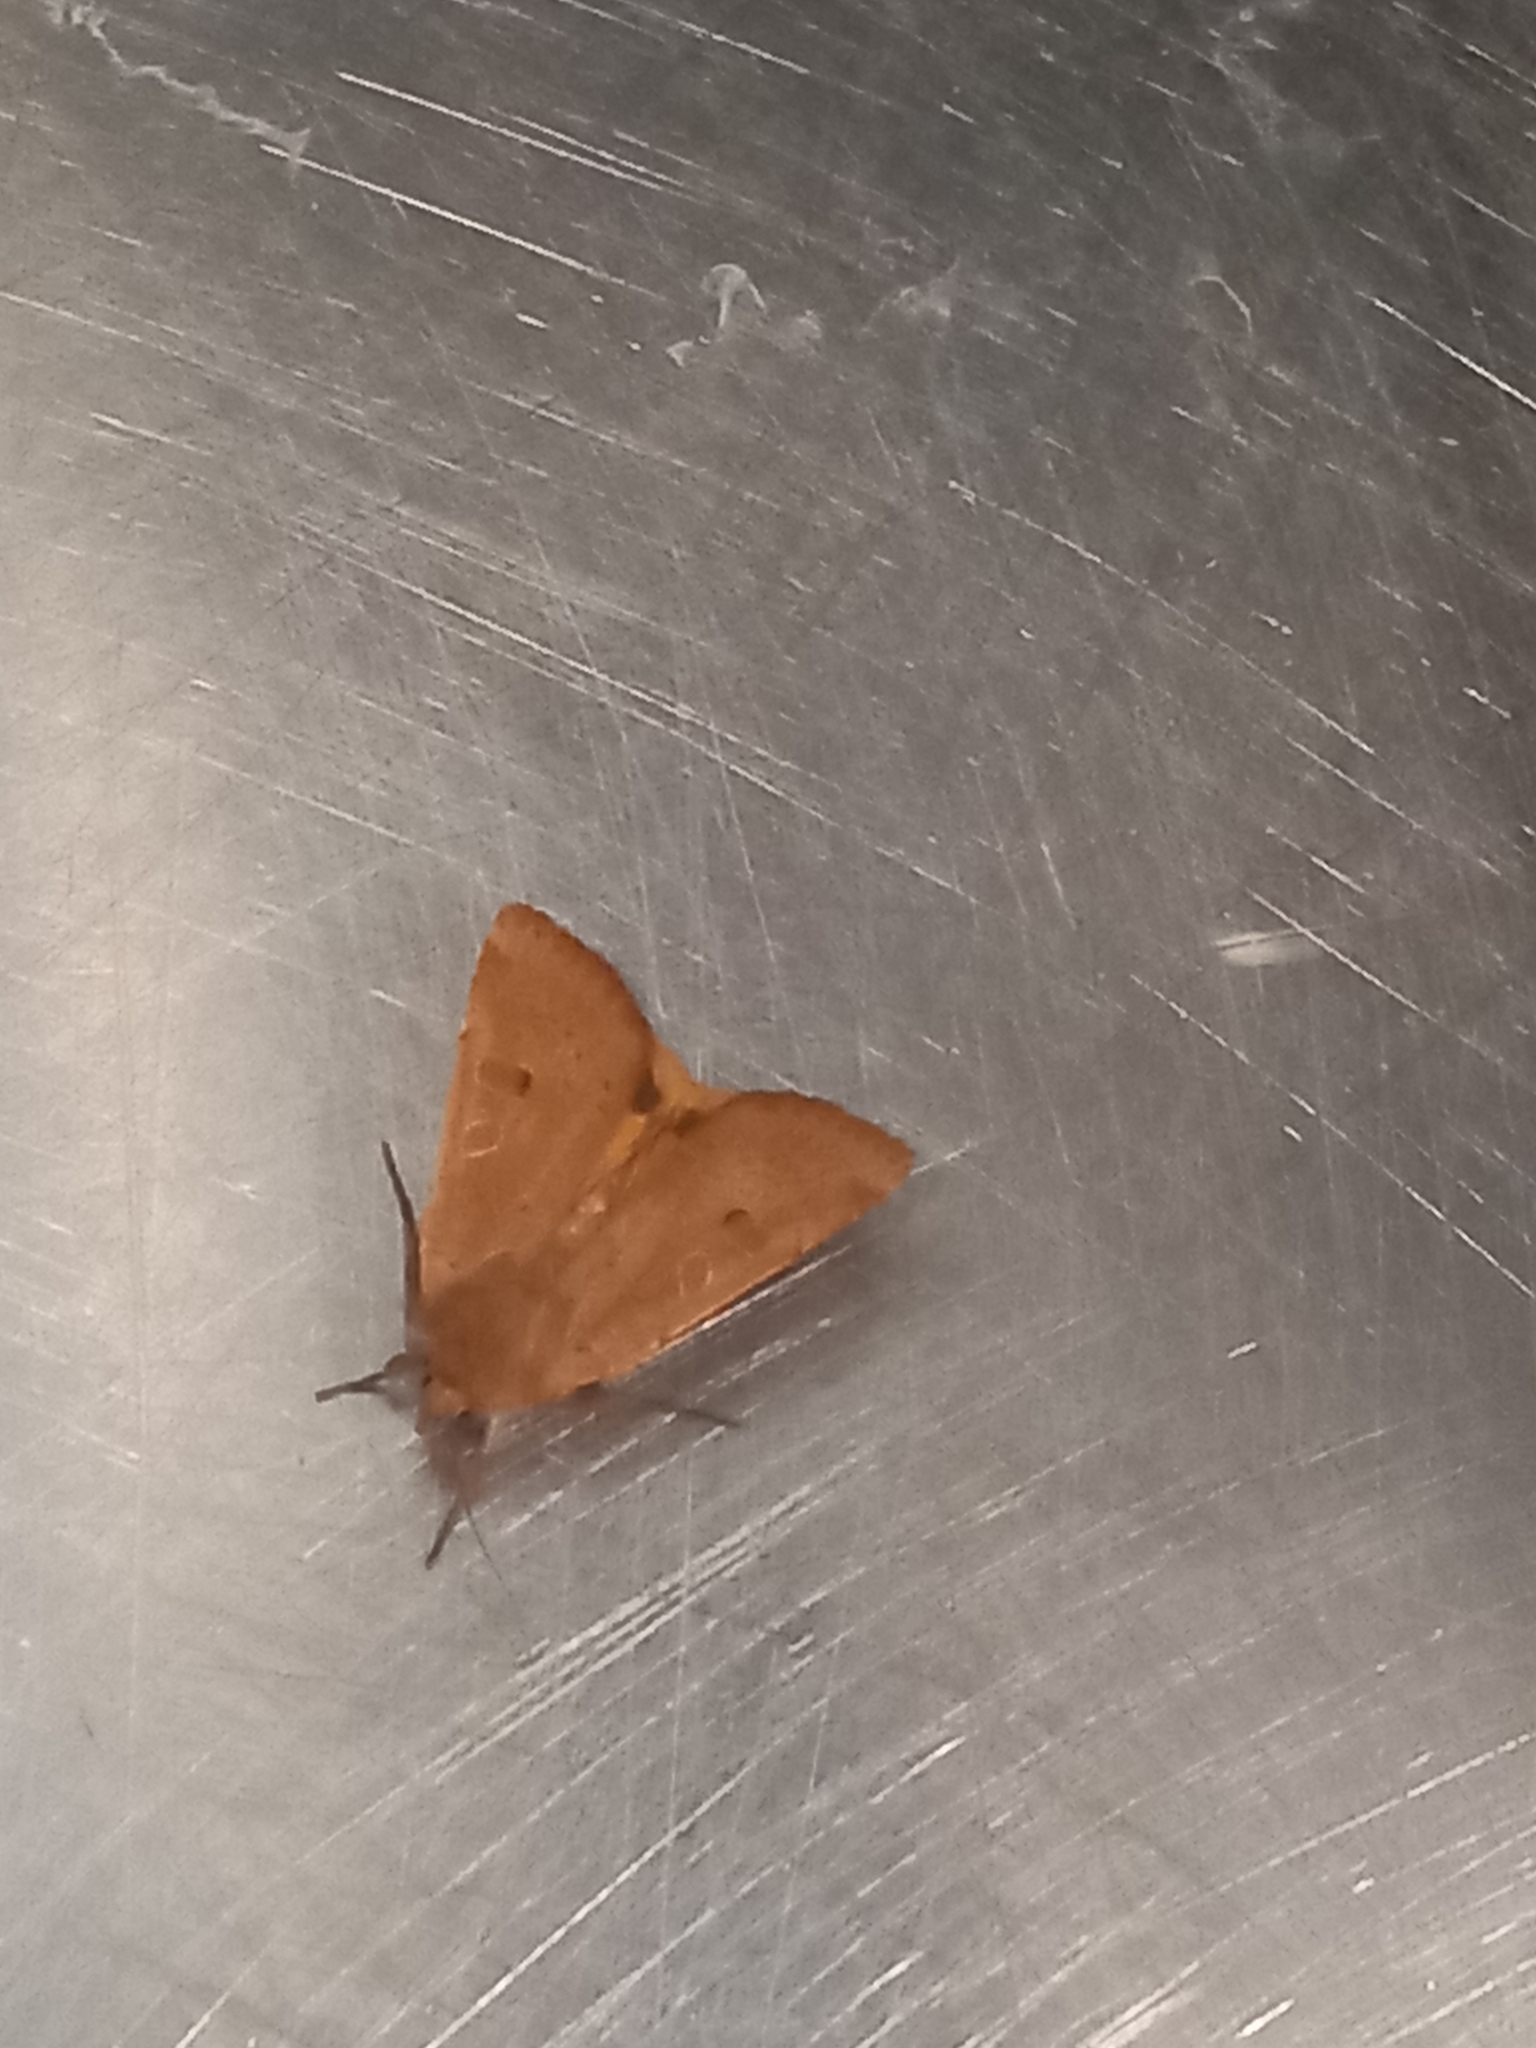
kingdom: Animalia
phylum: Arthropoda
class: Insecta
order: Lepidoptera
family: Noctuidae
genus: Noctua
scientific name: Noctua comes
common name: Lesser yellow underwing
